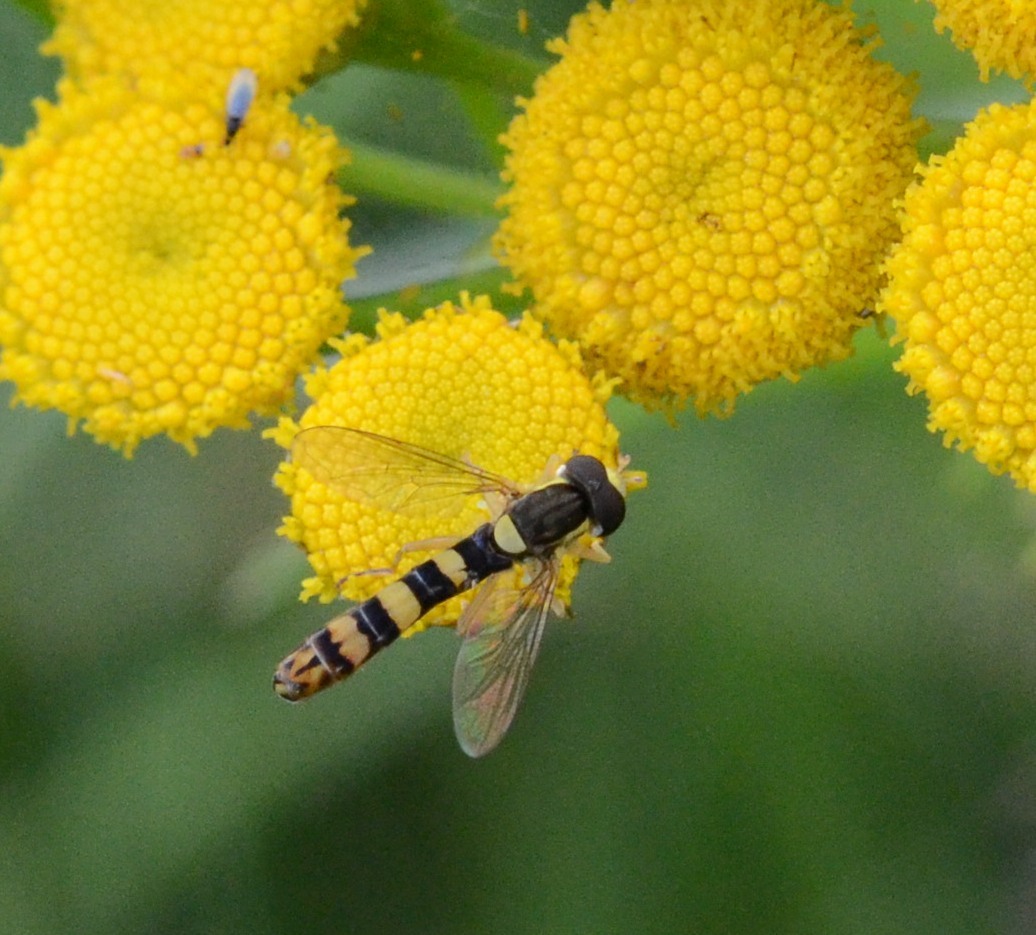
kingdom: Animalia
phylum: Arthropoda
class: Insecta
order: Diptera
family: Syrphidae
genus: Sphaerophoria
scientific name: Sphaerophoria scripta
